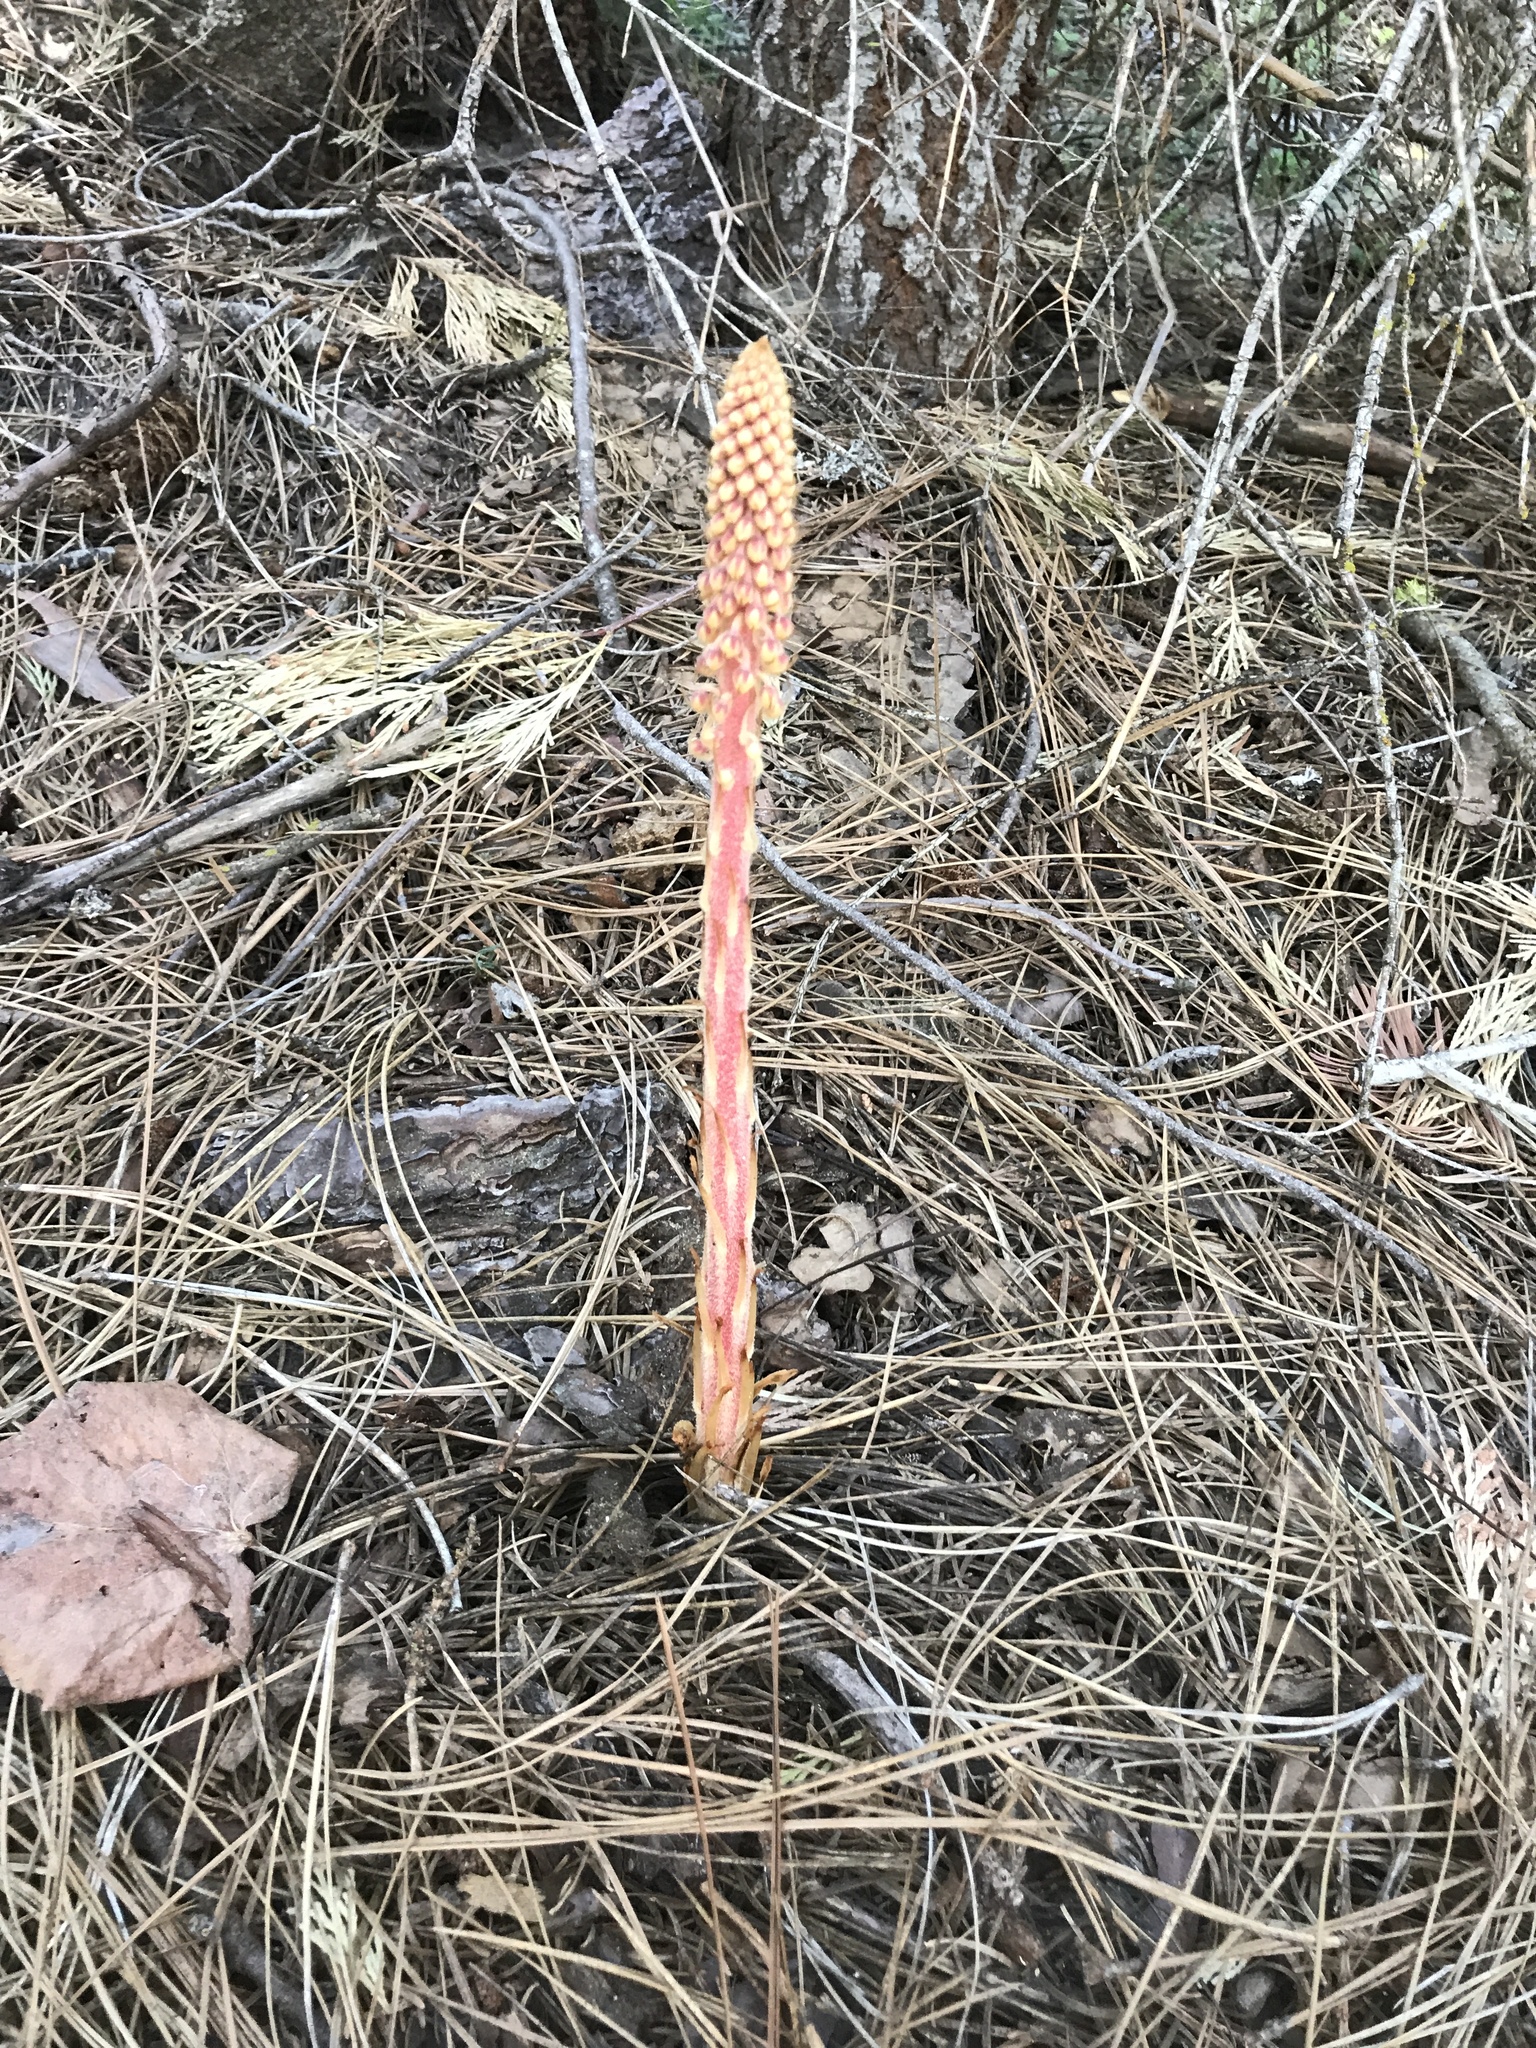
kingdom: Plantae
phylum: Tracheophyta
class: Magnoliopsida
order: Ericales
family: Ericaceae
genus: Pterospora
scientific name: Pterospora andromedea
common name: Giant bird's-nest
